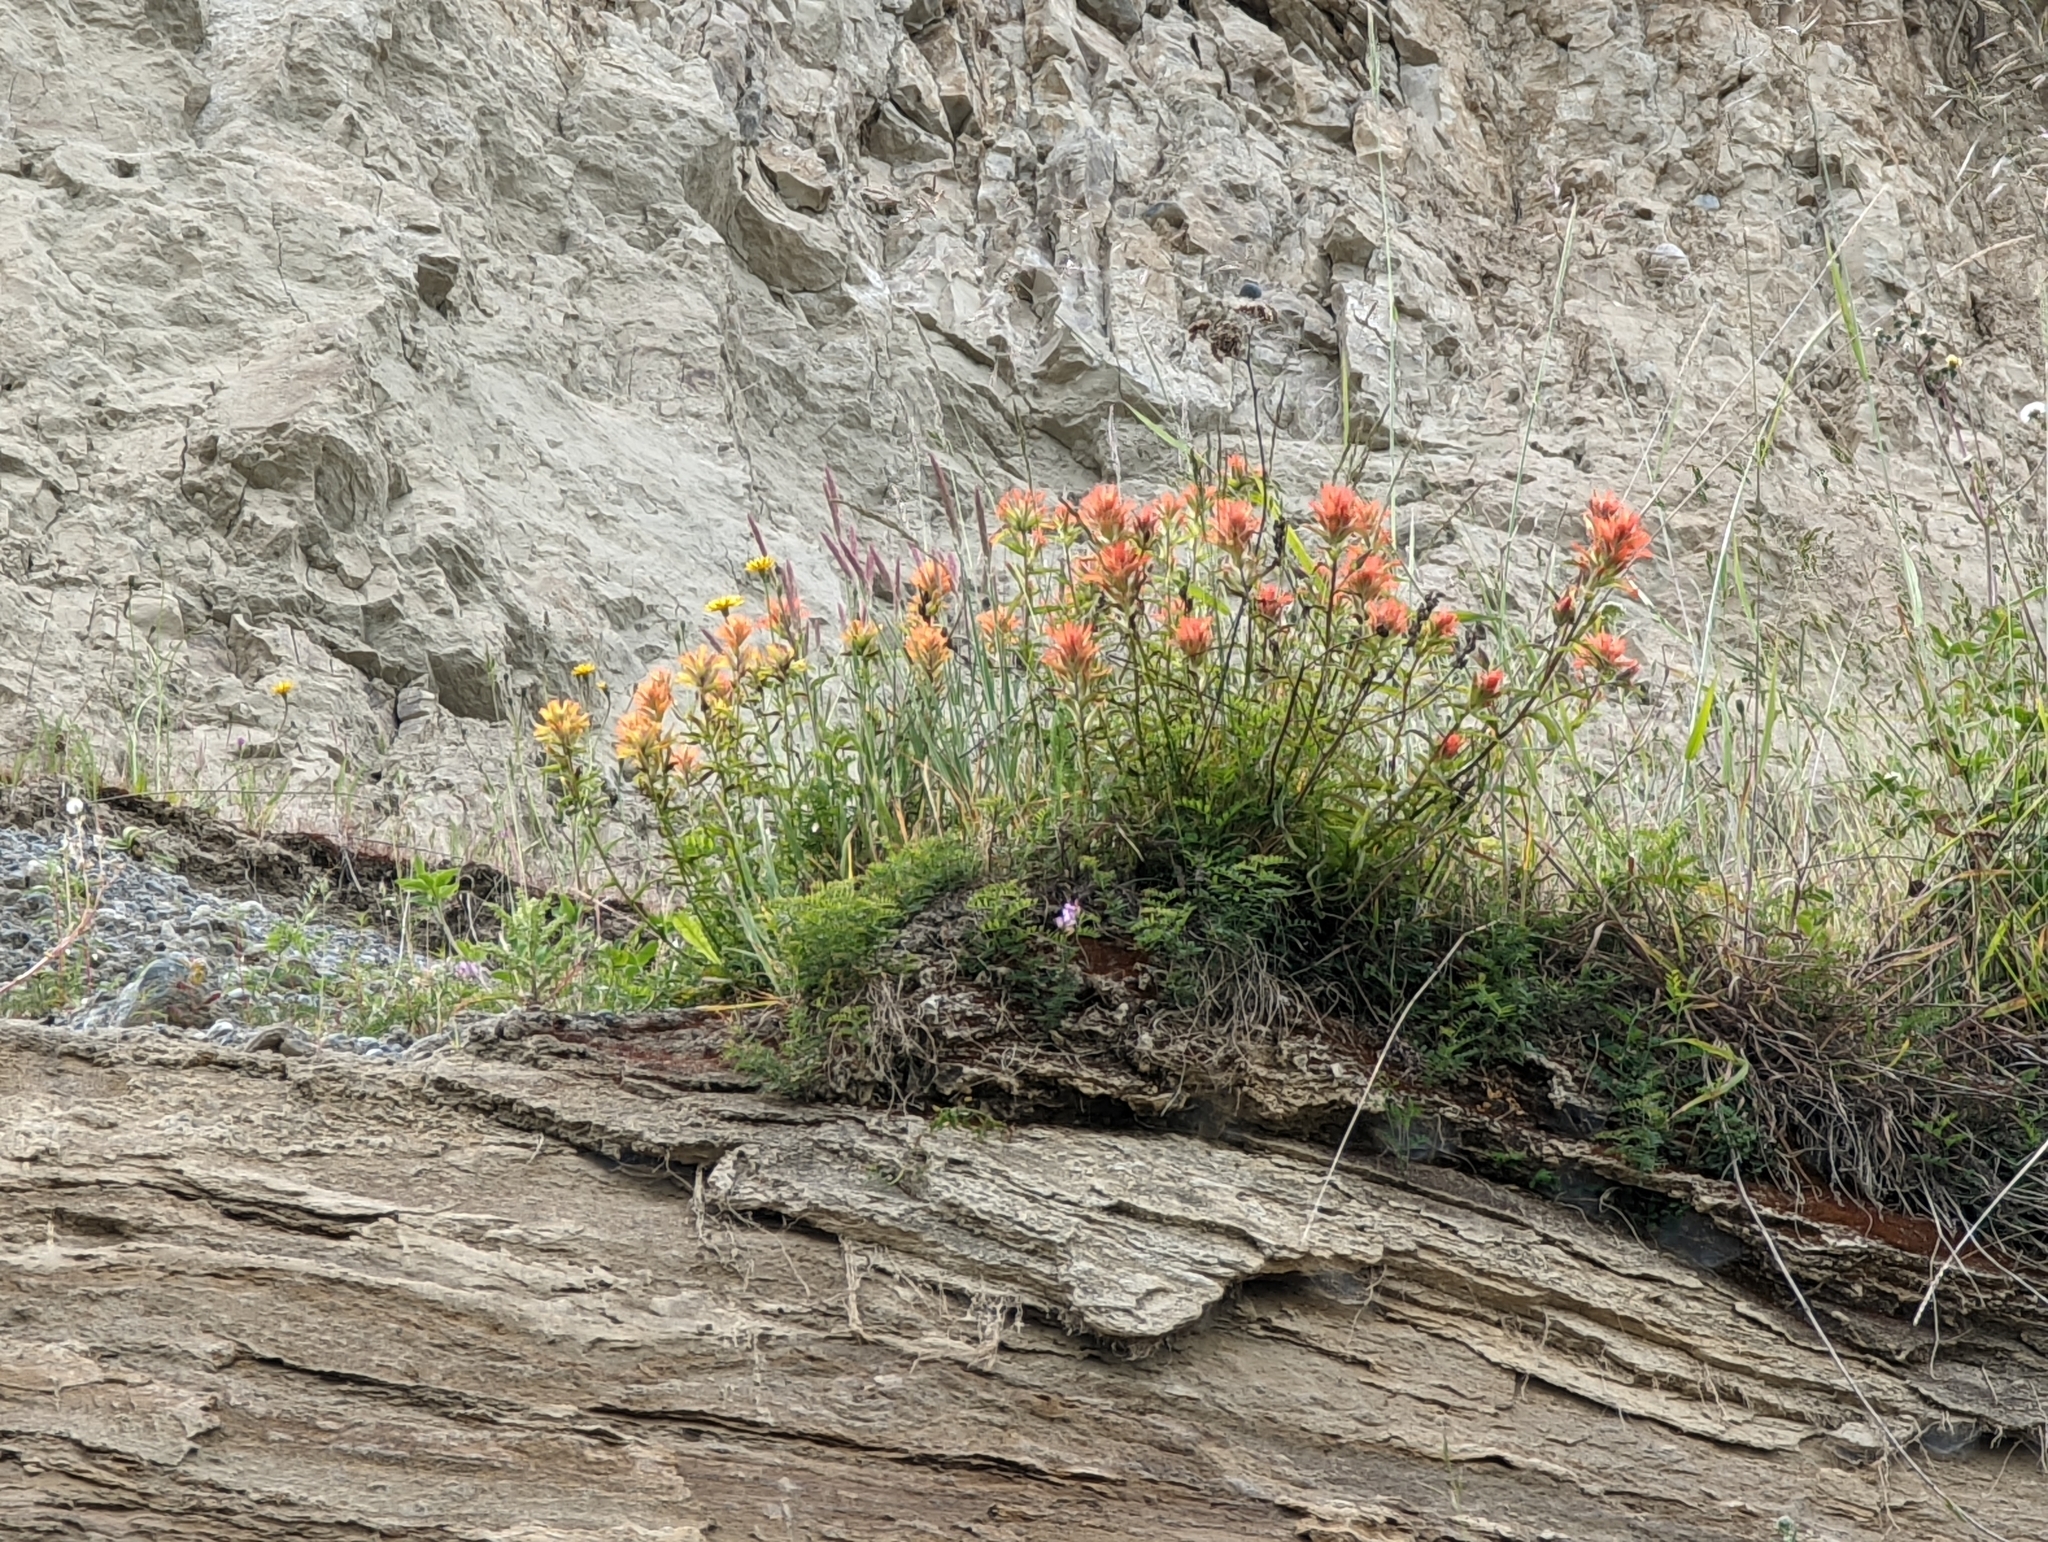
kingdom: Plantae
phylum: Tracheophyta
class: Magnoliopsida
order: Lamiales
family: Orobanchaceae
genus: Castilleja
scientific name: Castilleja miniata
